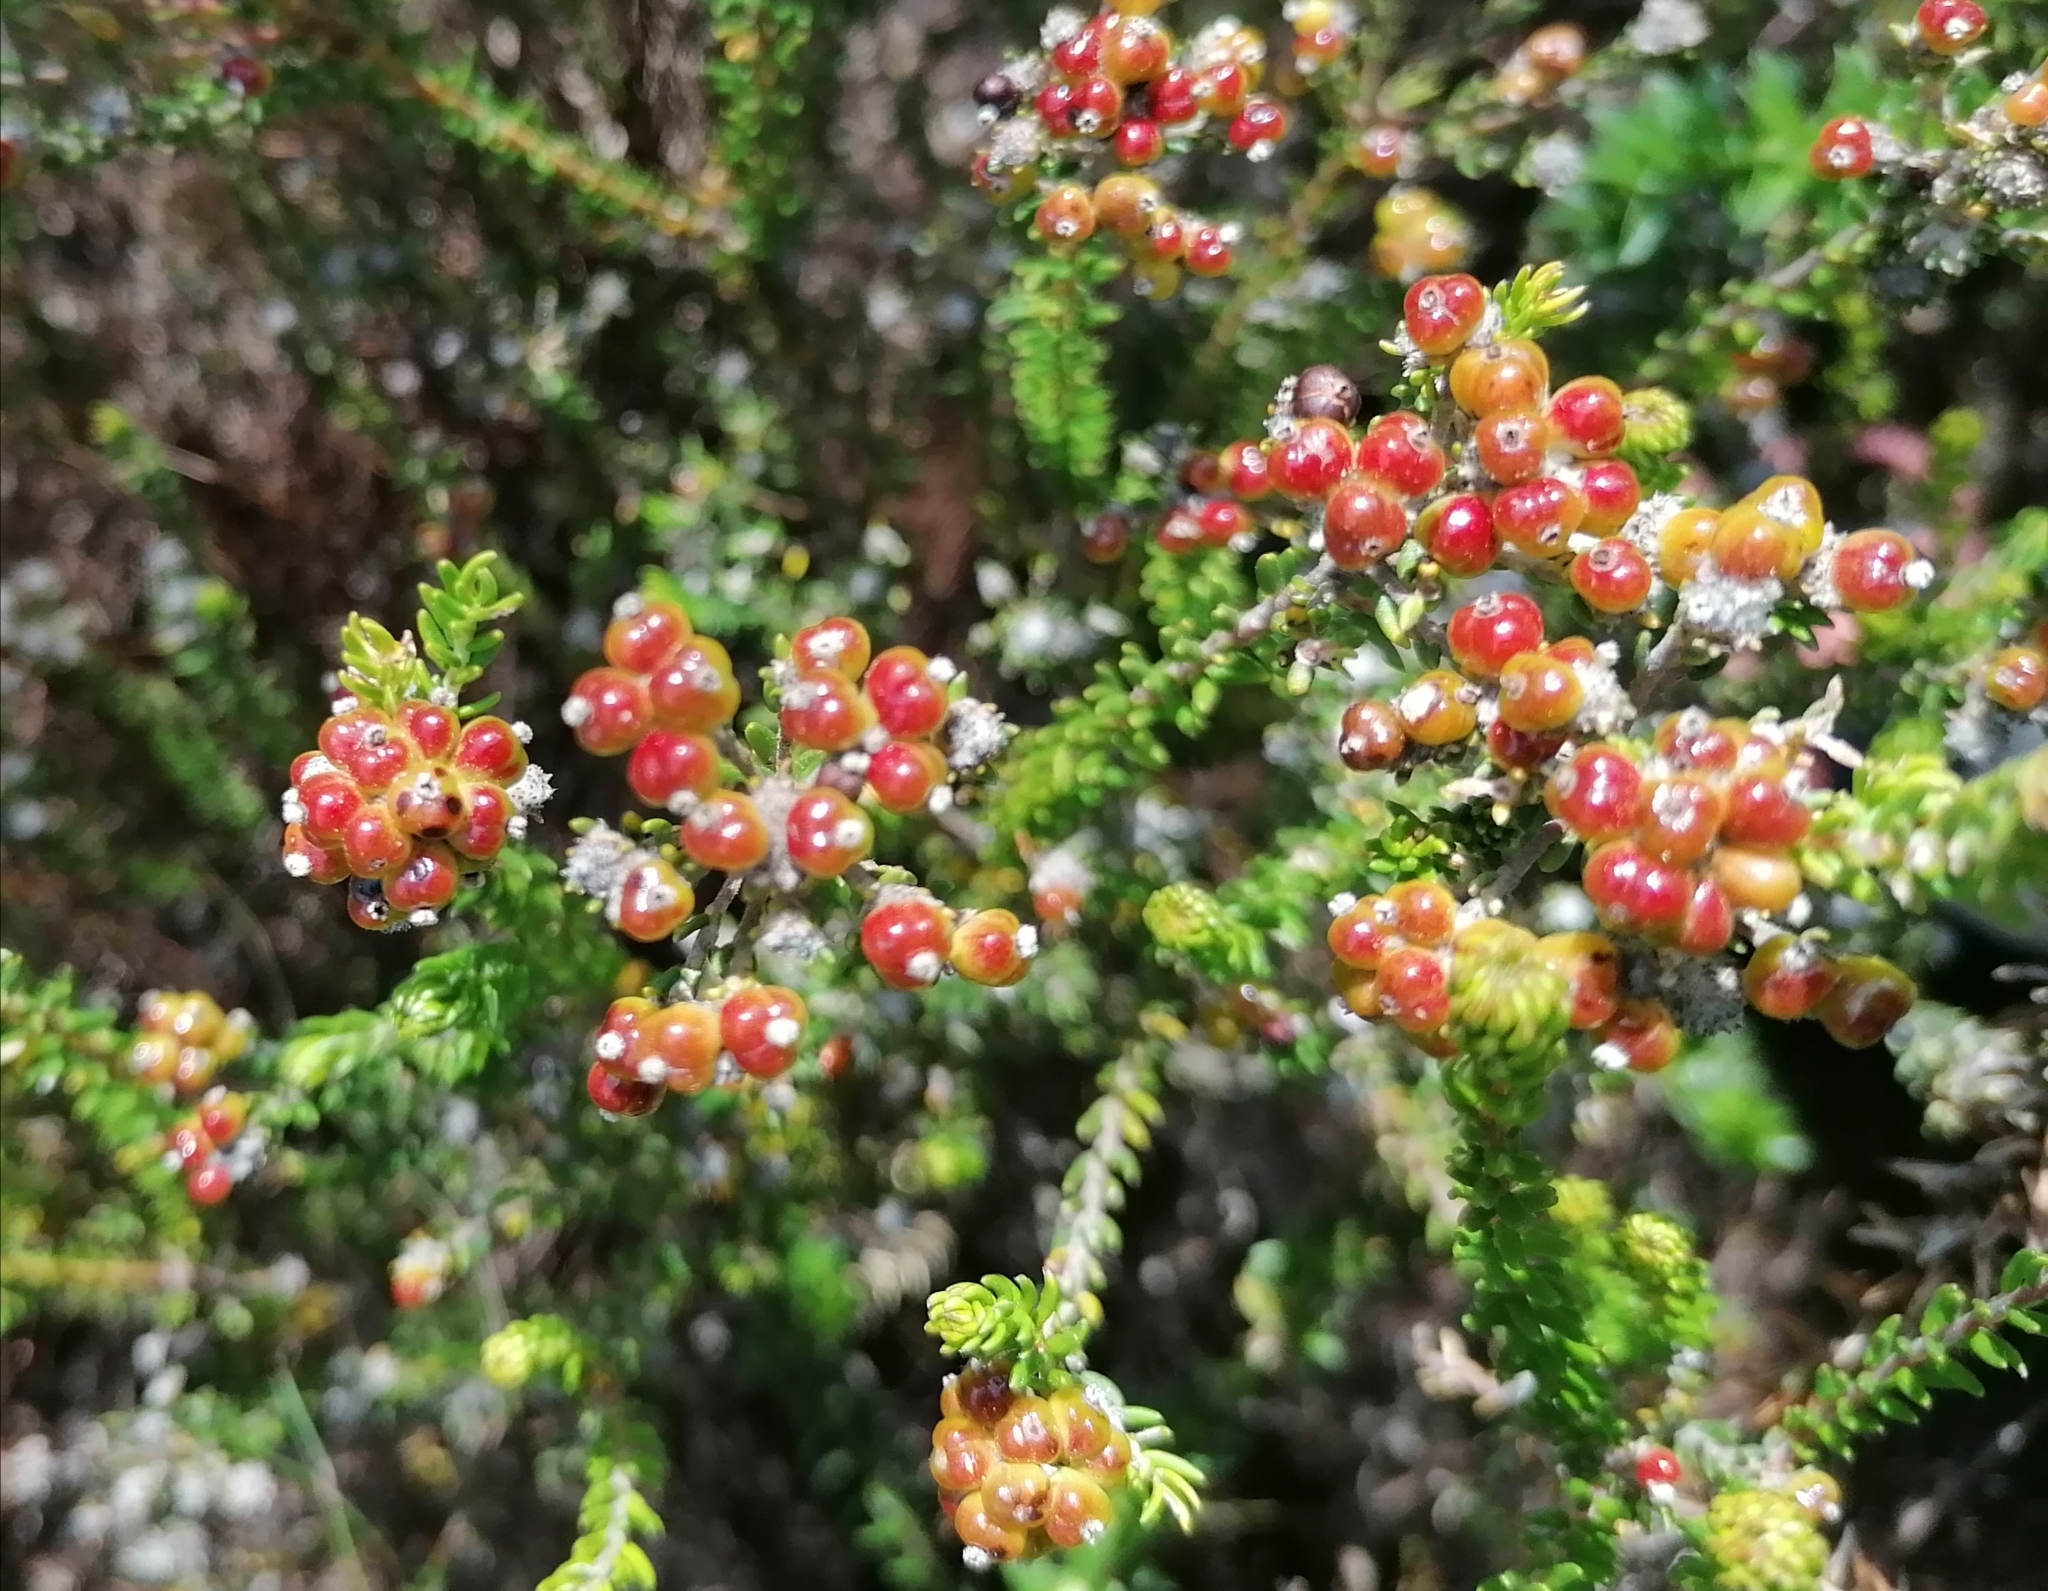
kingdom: Plantae
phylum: Tracheophyta
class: Magnoliopsida
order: Rosales
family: Rhamnaceae
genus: Phylica
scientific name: Phylica ericoides
